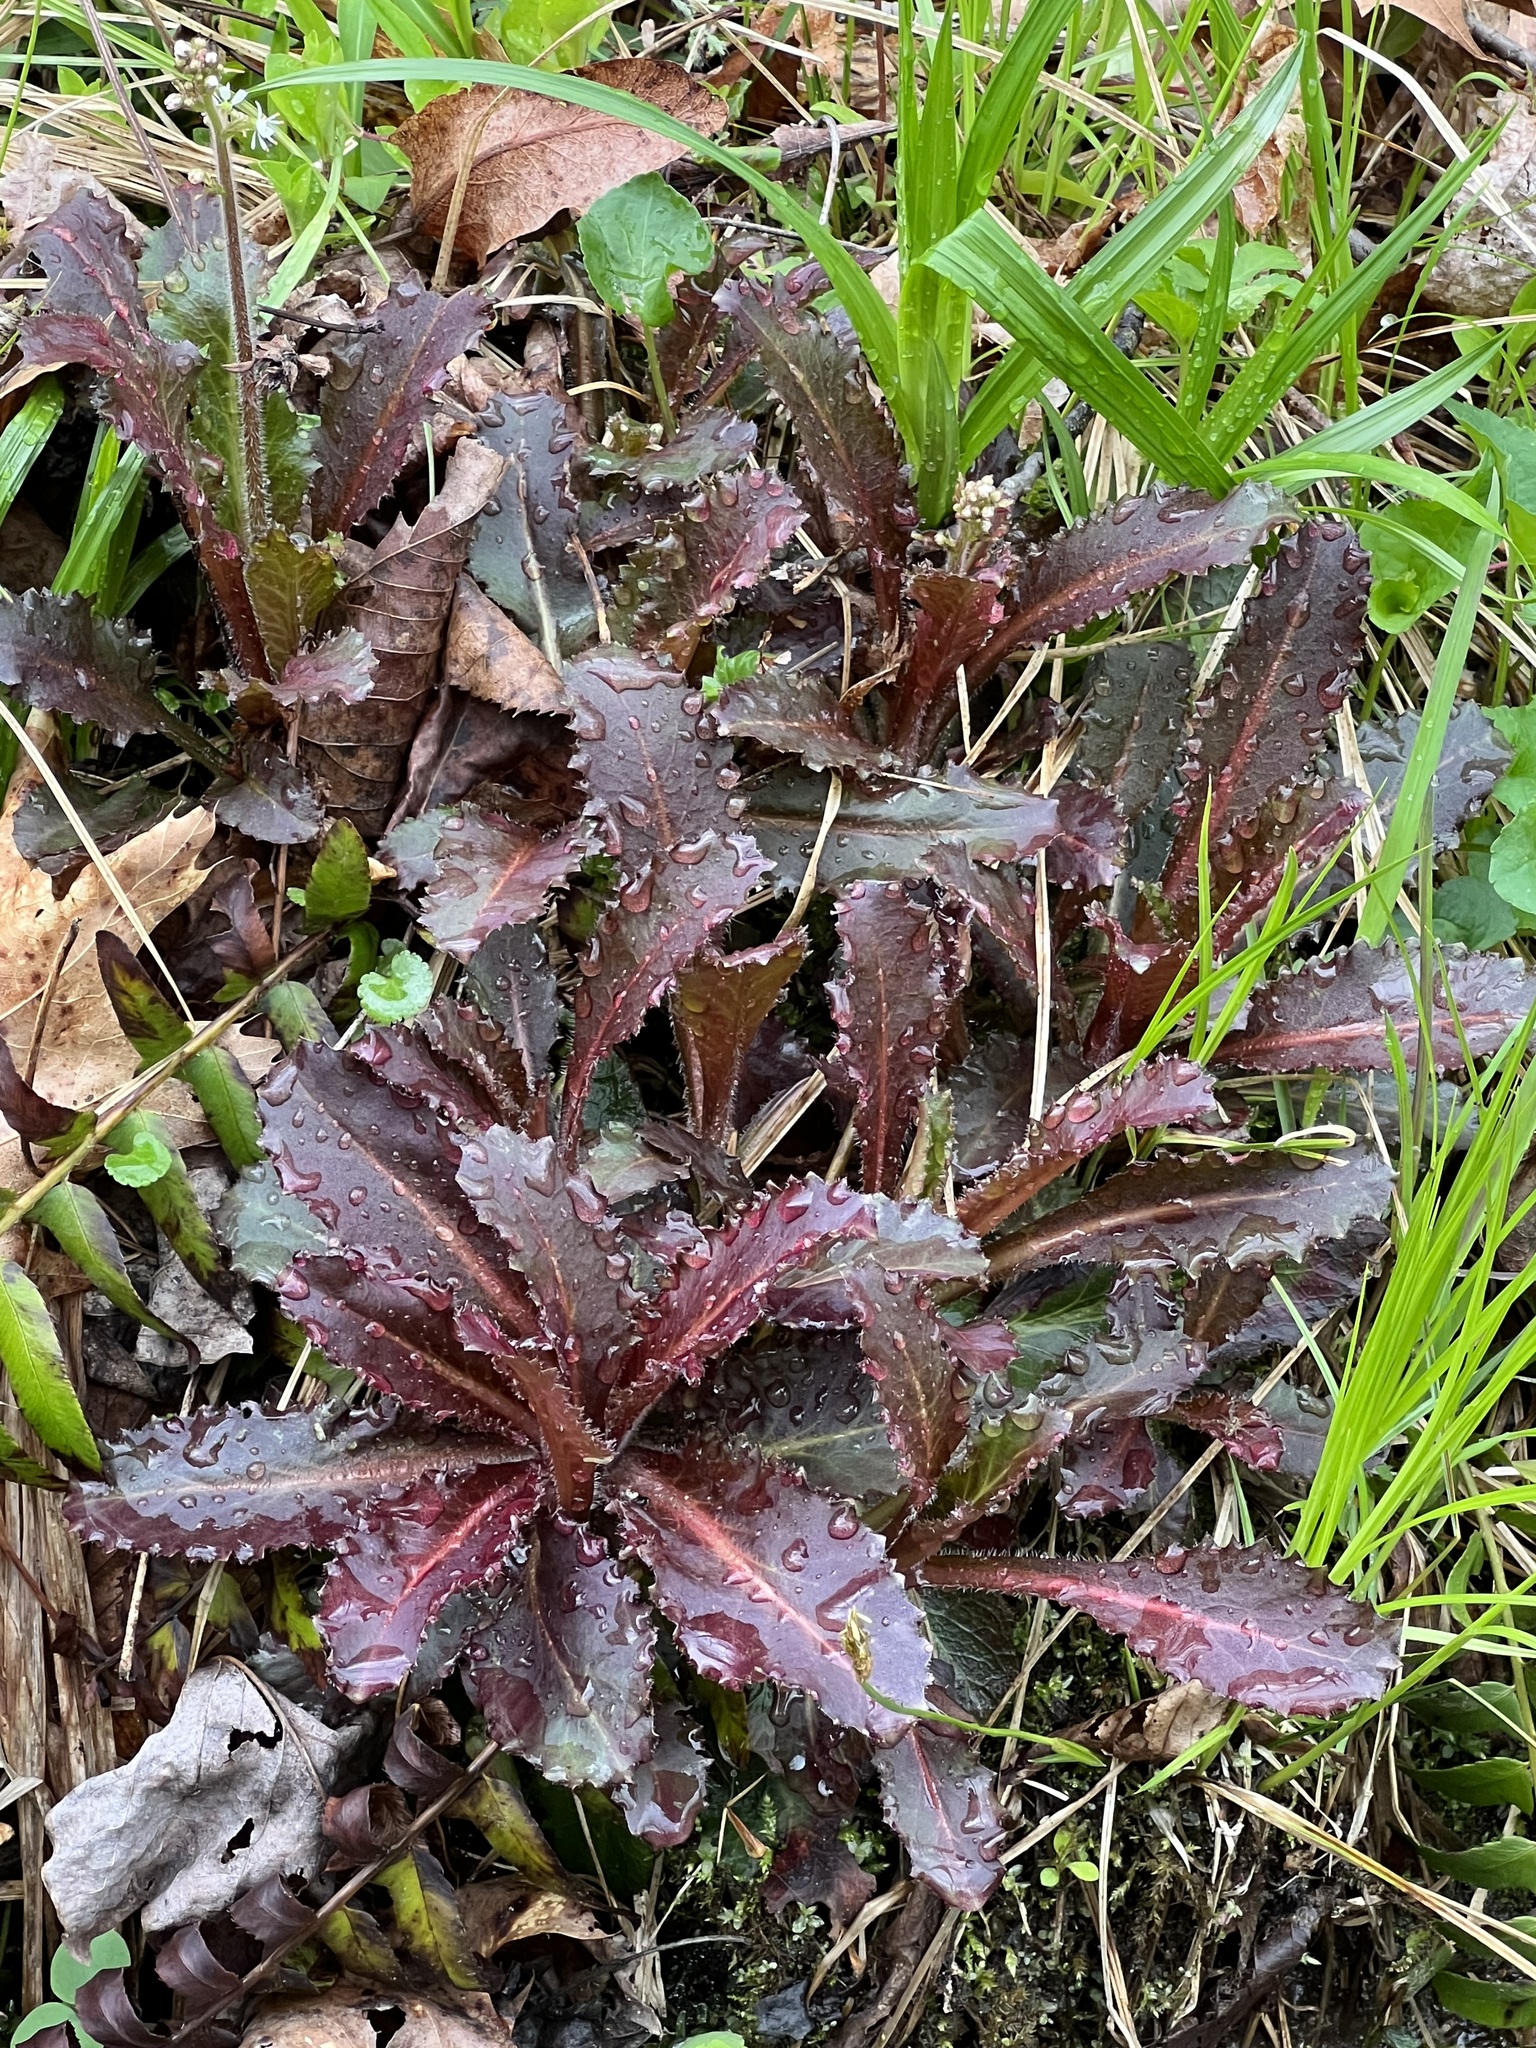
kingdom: Plantae
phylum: Tracheophyta
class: Magnoliopsida
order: Saxifragales
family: Saxifragaceae
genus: Micranthes
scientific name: Micranthes micranthidifolia
